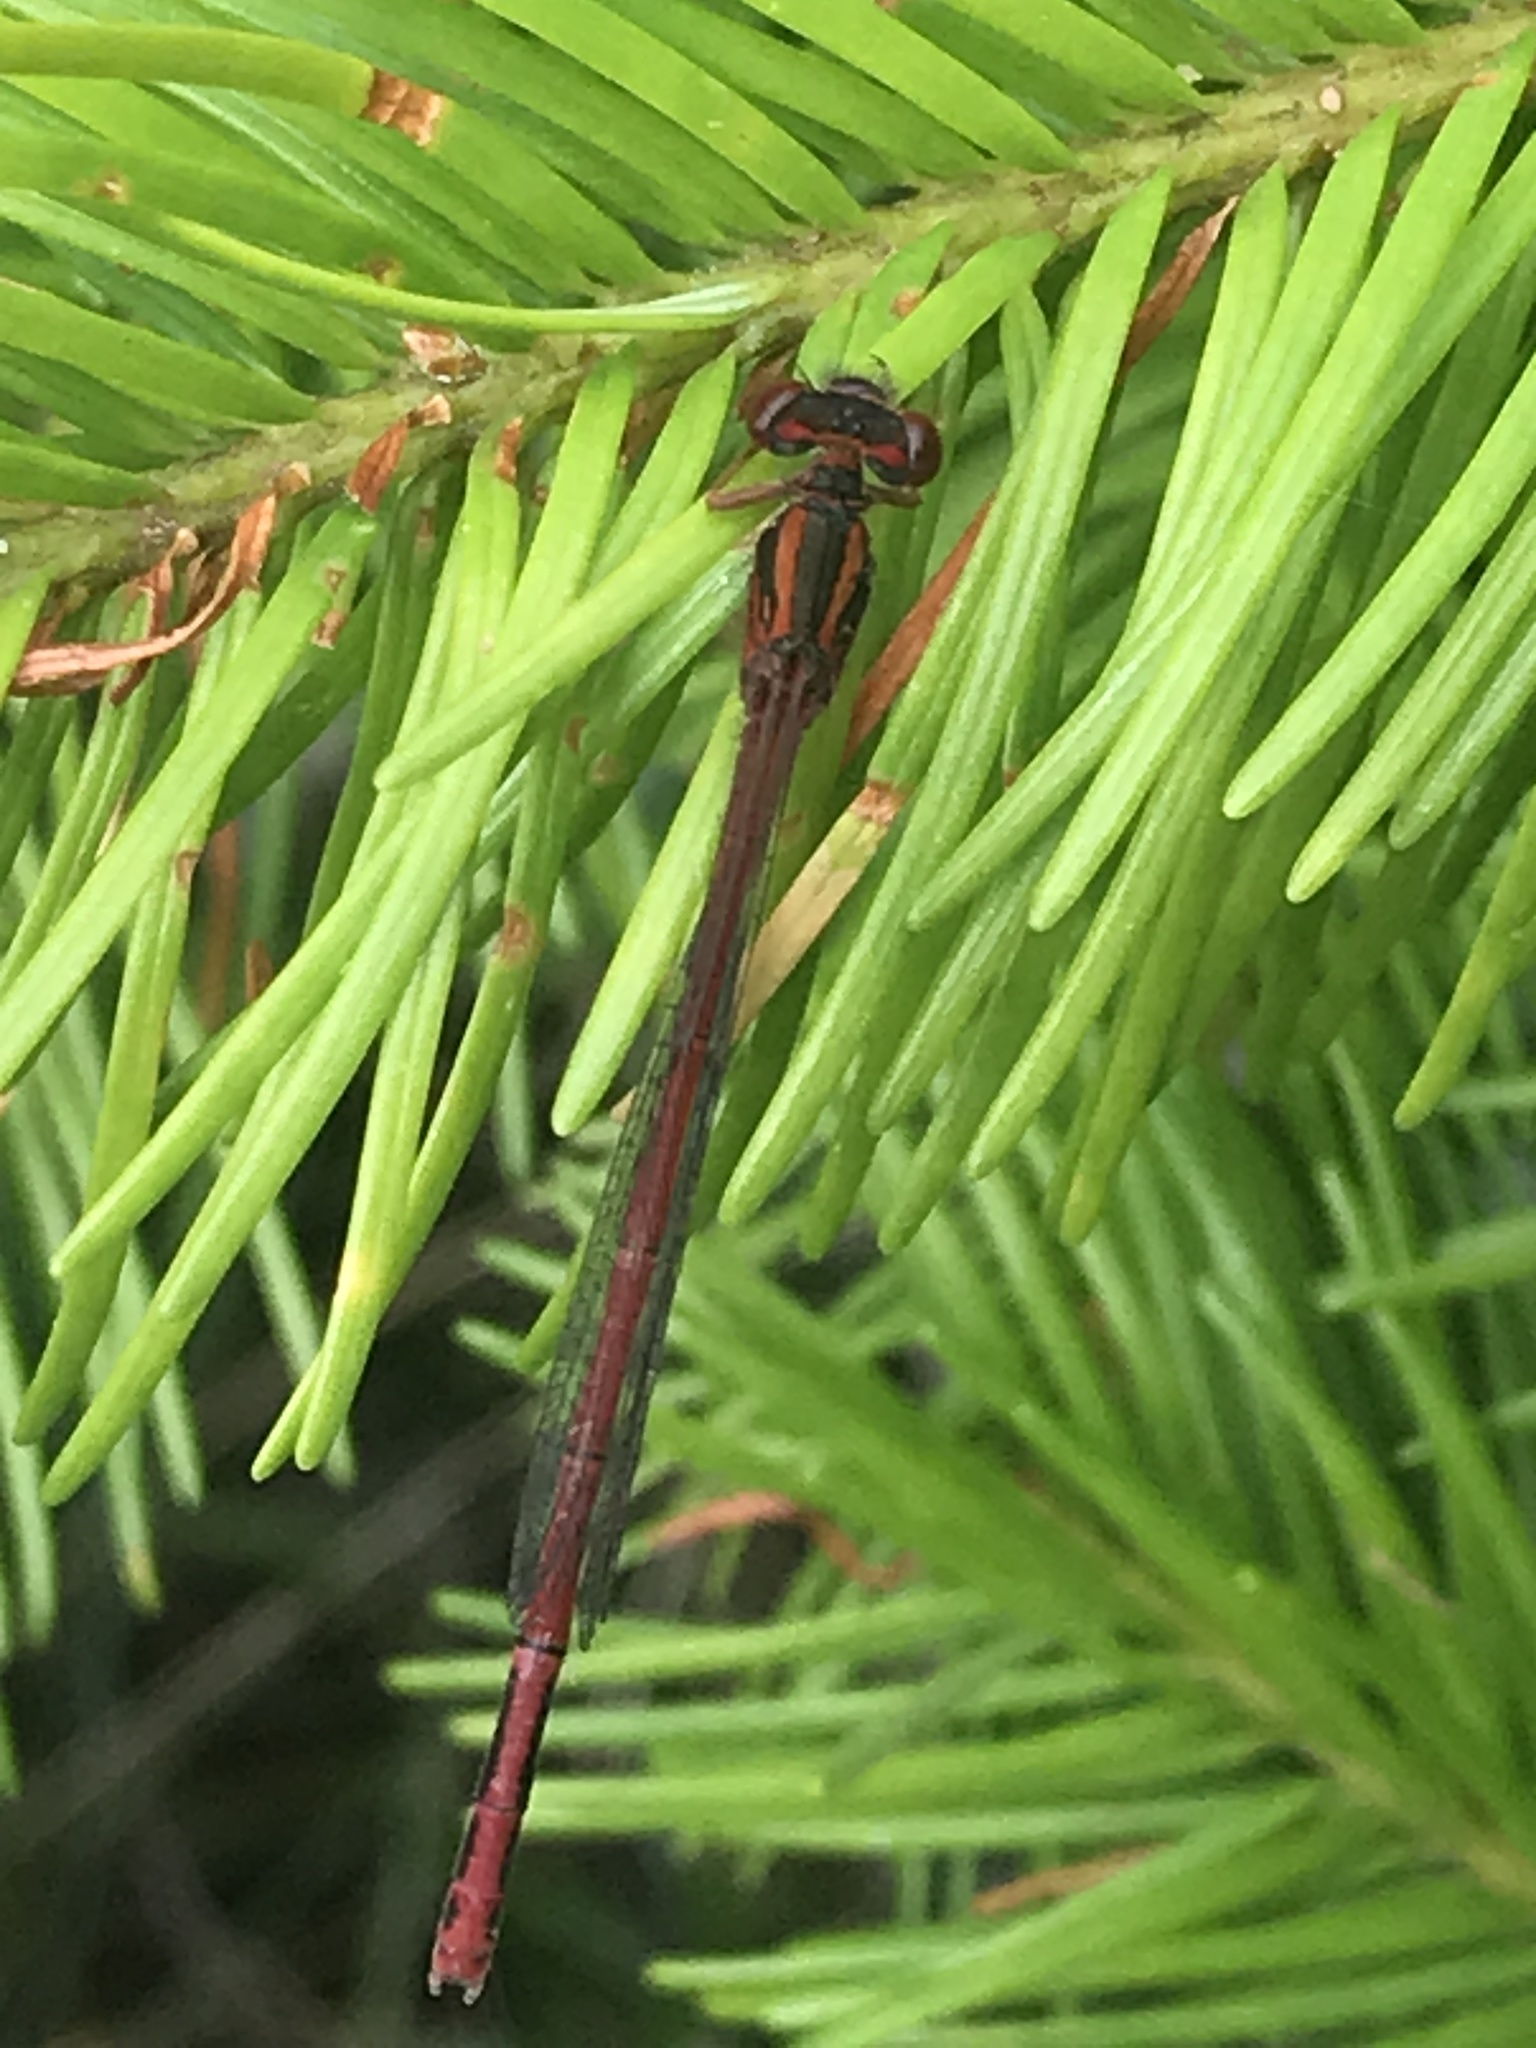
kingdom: Animalia
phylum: Arthropoda
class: Insecta
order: Odonata
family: Coenagrionidae
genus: Xanthocnemis
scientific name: Xanthocnemis zealandica
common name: Common redcoat damselfly
